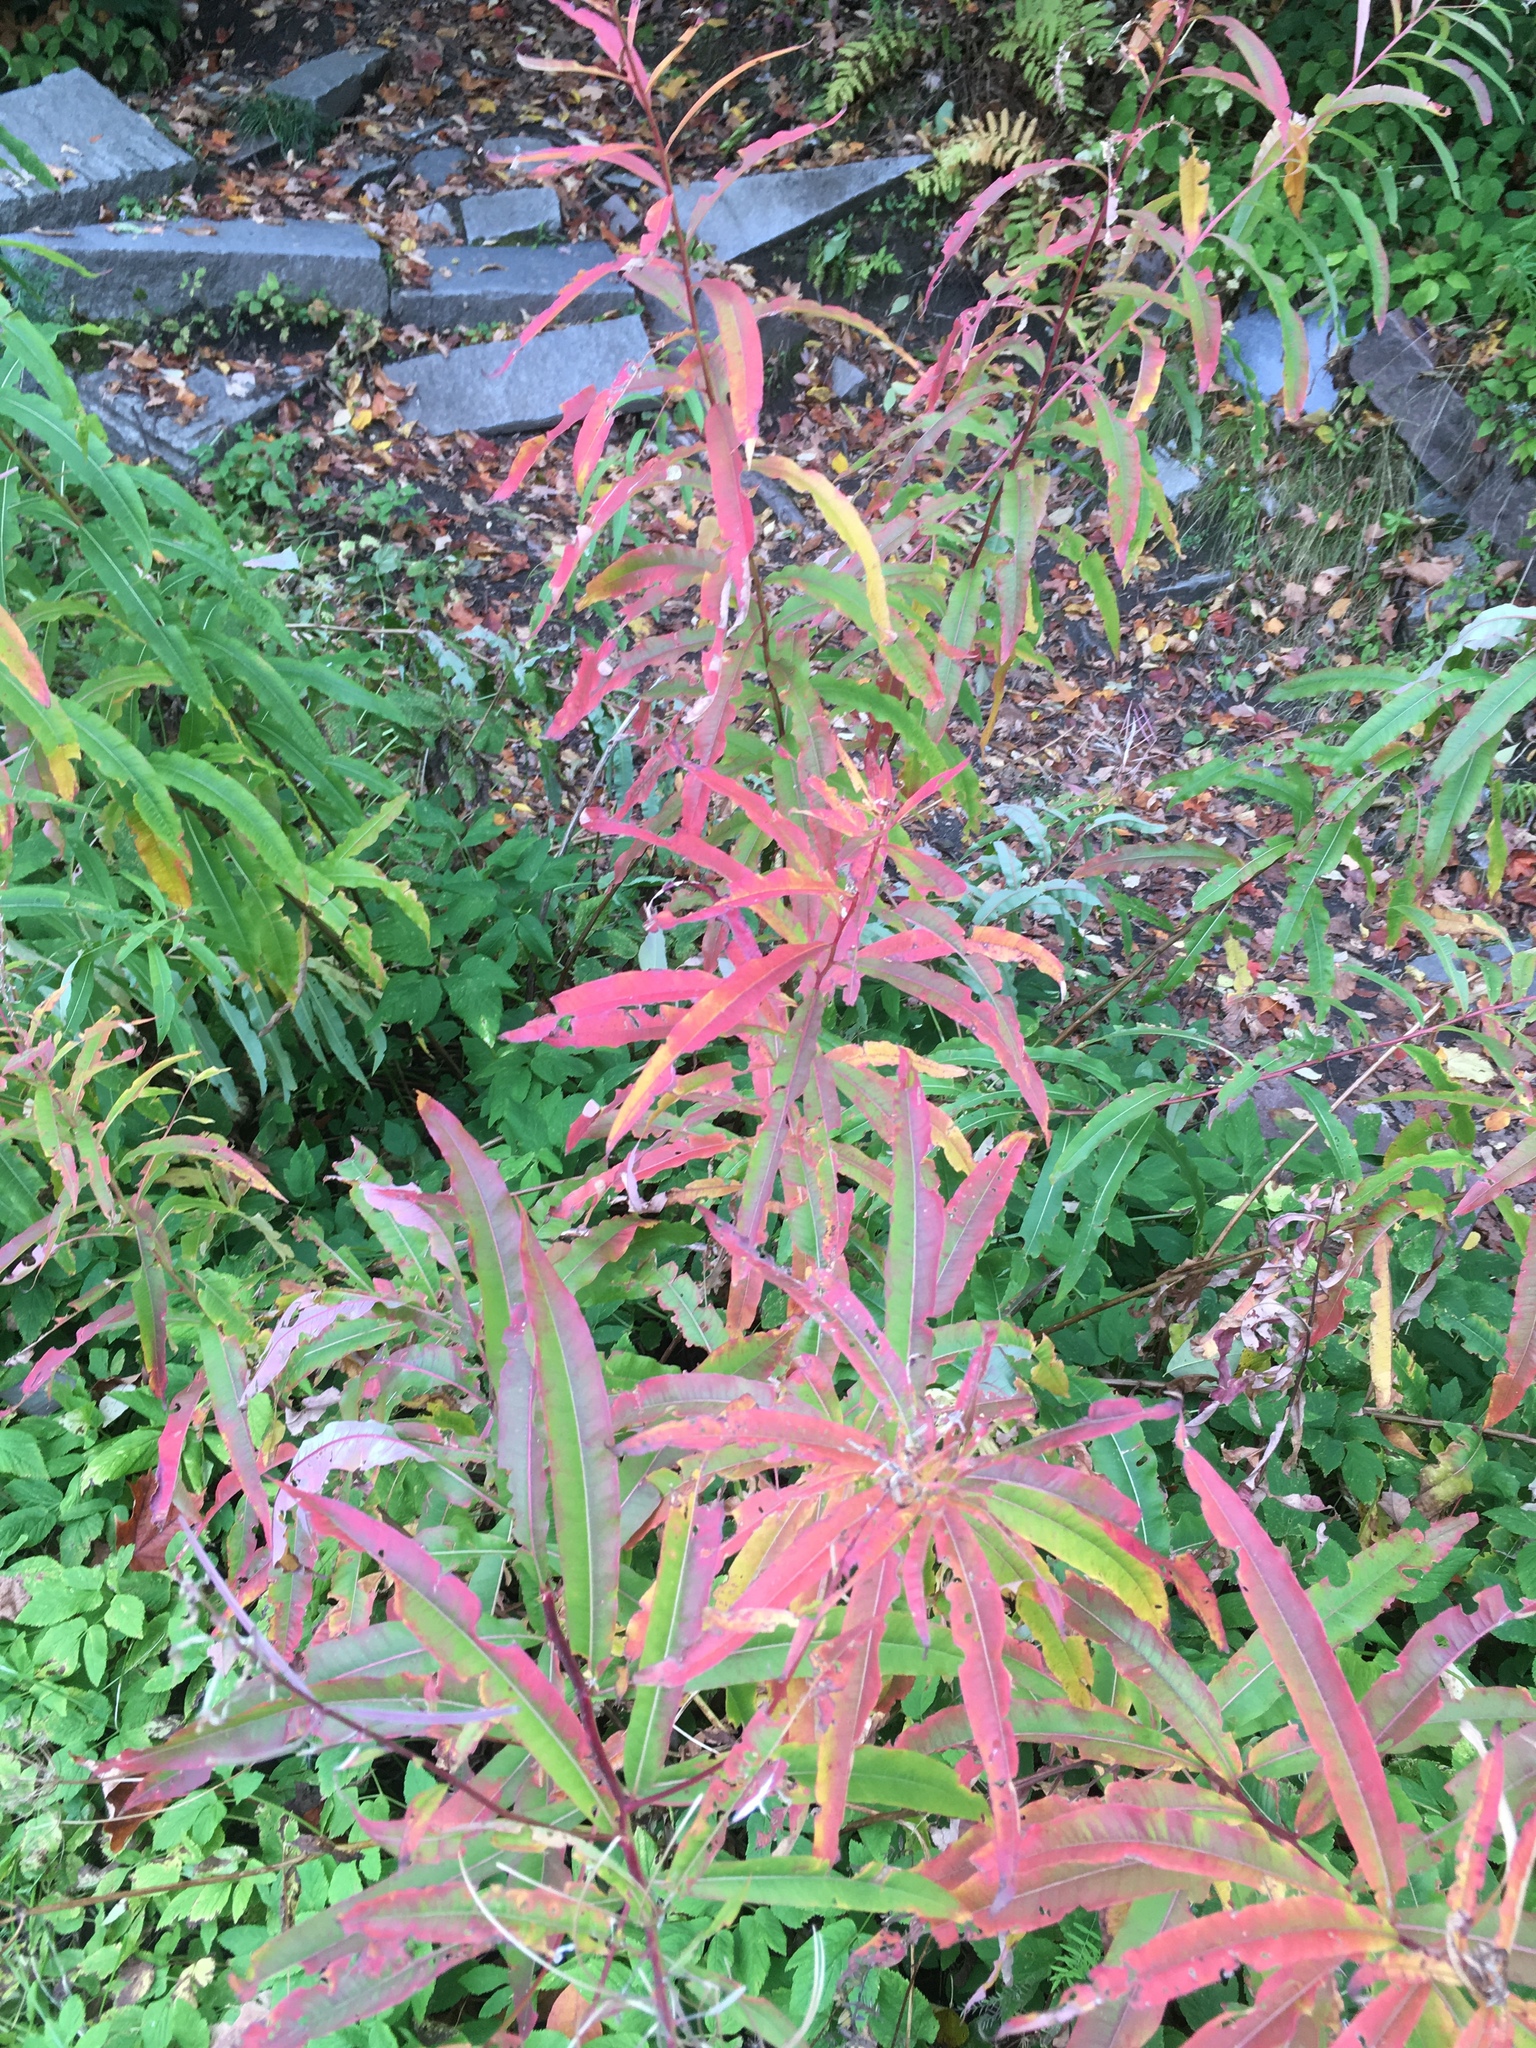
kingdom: Plantae
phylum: Tracheophyta
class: Magnoliopsida
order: Myrtales
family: Onagraceae
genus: Chamaenerion
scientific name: Chamaenerion angustifolium
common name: Fireweed
